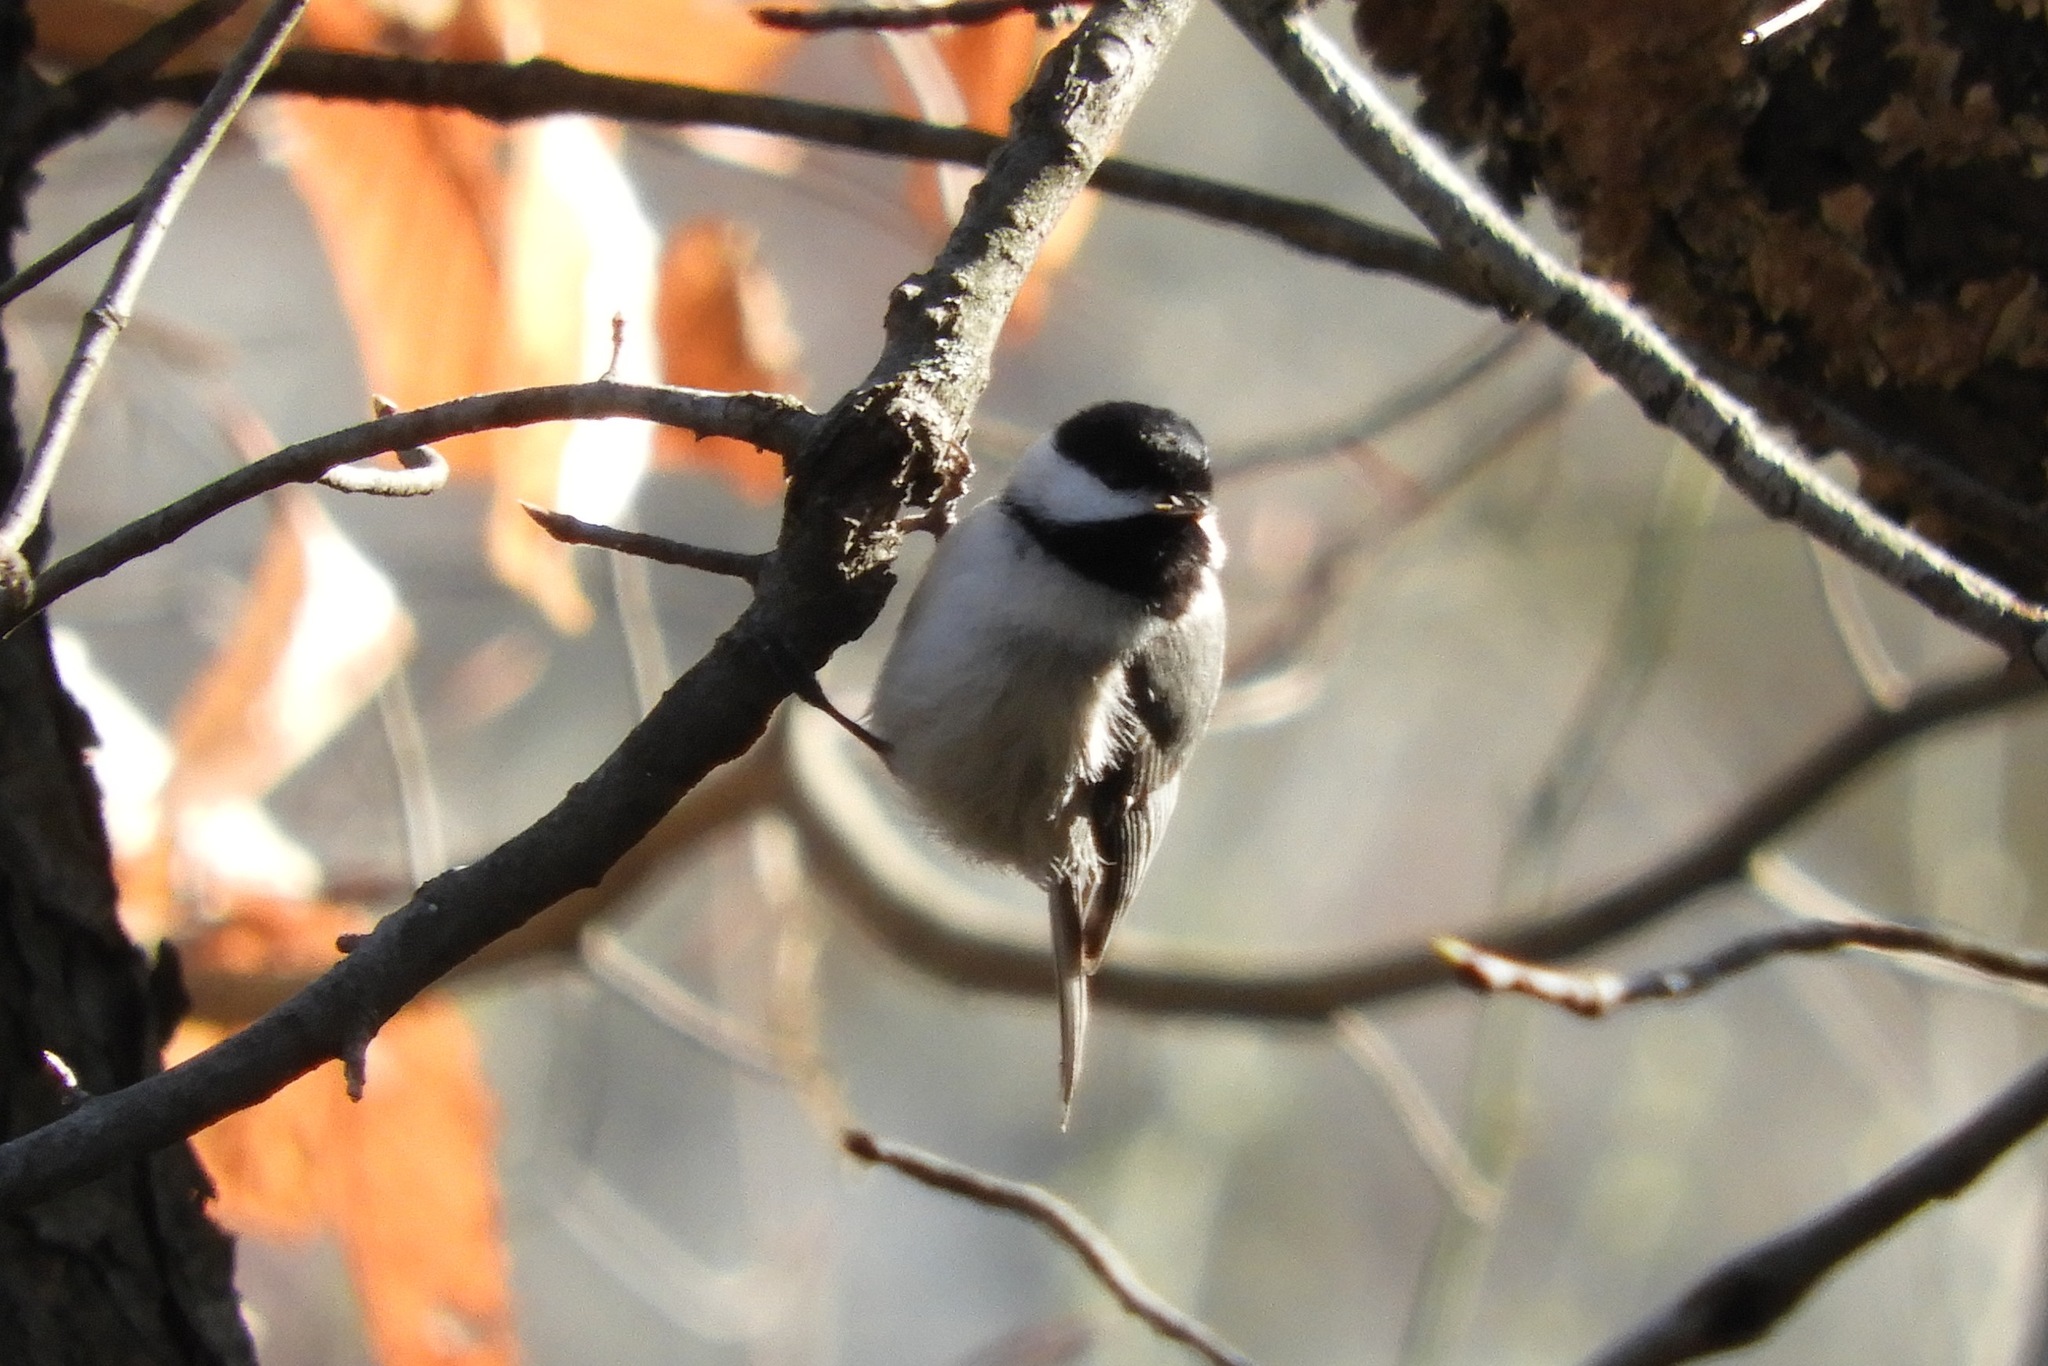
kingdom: Animalia
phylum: Chordata
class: Aves
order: Passeriformes
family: Paridae
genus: Poecile
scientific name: Poecile carolinensis
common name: Carolina chickadee
